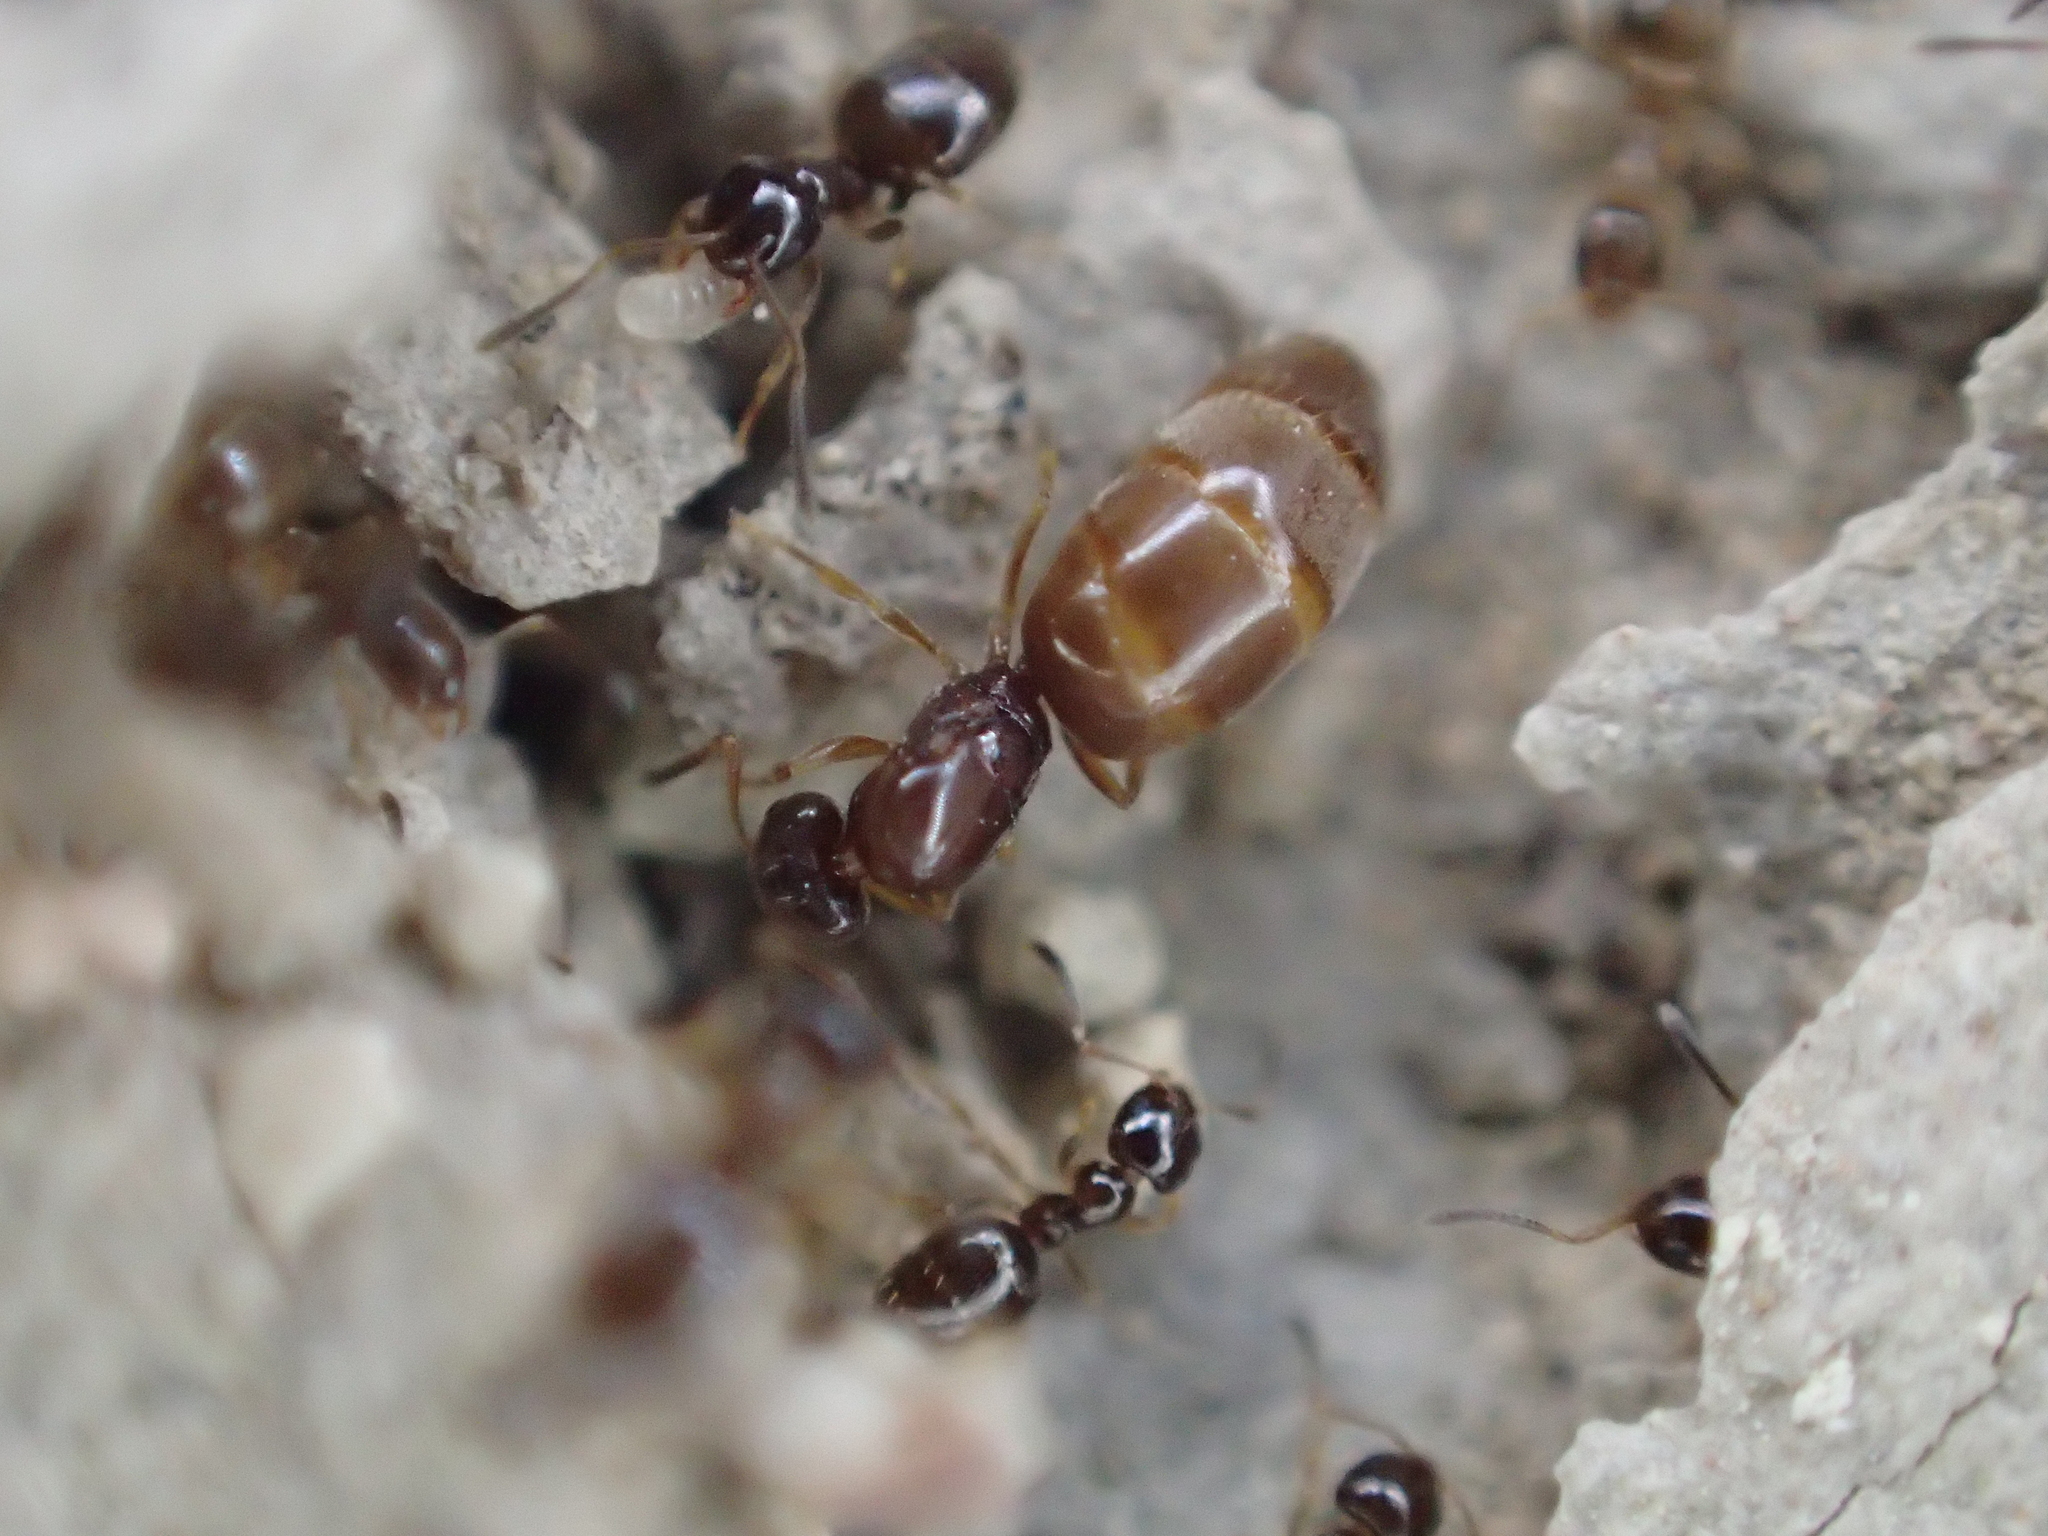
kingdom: Animalia
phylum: Arthropoda
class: Insecta
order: Hymenoptera
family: Formicidae
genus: Plagiolepis
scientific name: Plagiolepis pygmaea
